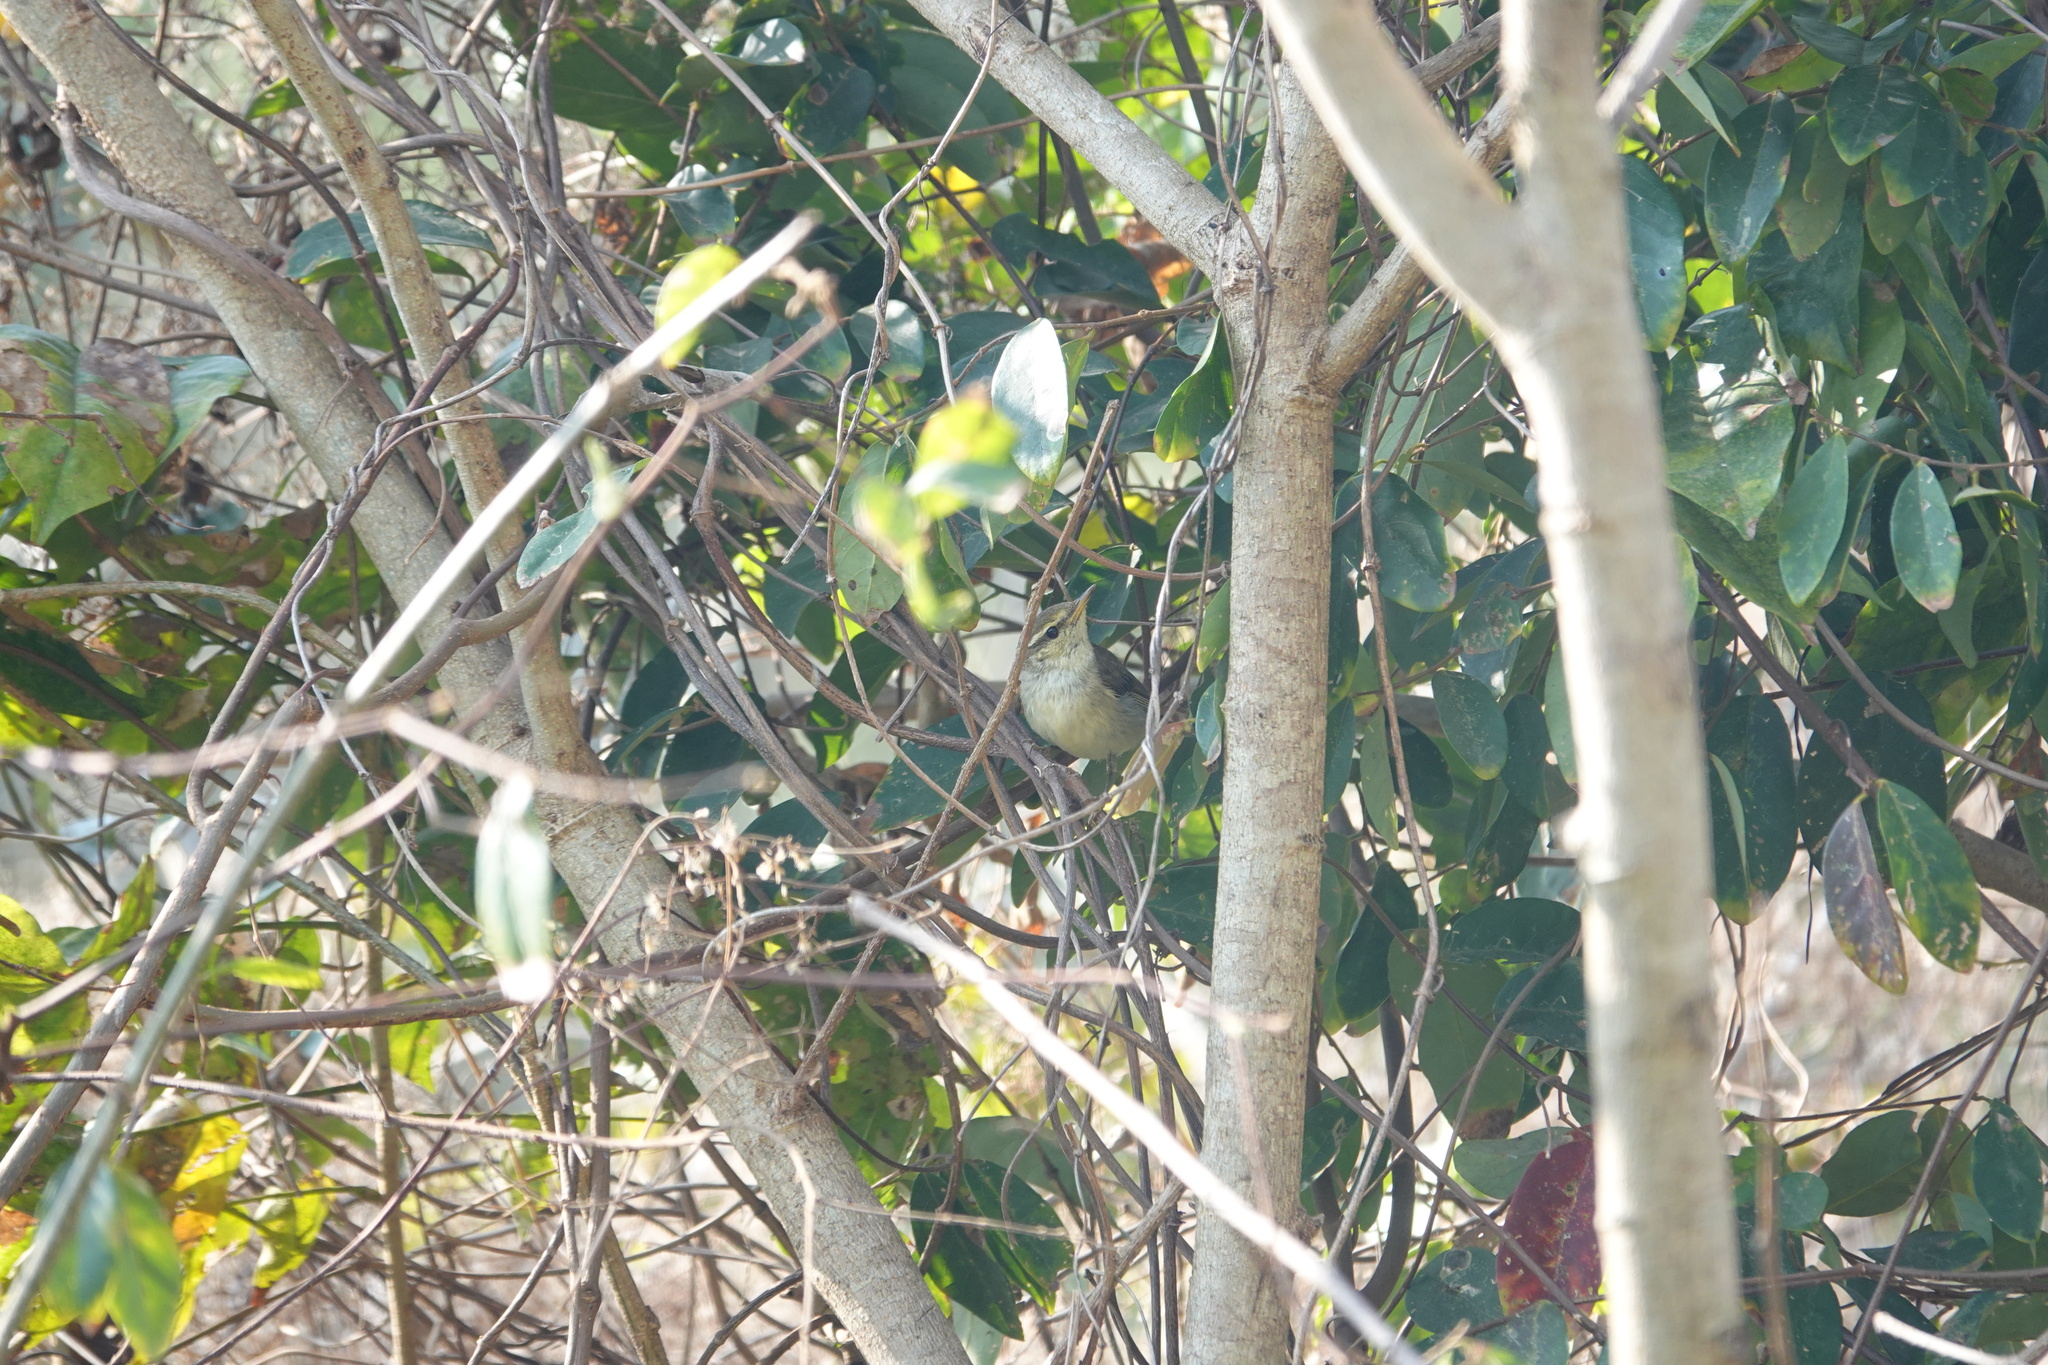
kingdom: Animalia
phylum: Chordata
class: Aves
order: Passeriformes
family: Phylloscopidae
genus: Phylloscopus
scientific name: Phylloscopus borealis
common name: Arctic warbler
